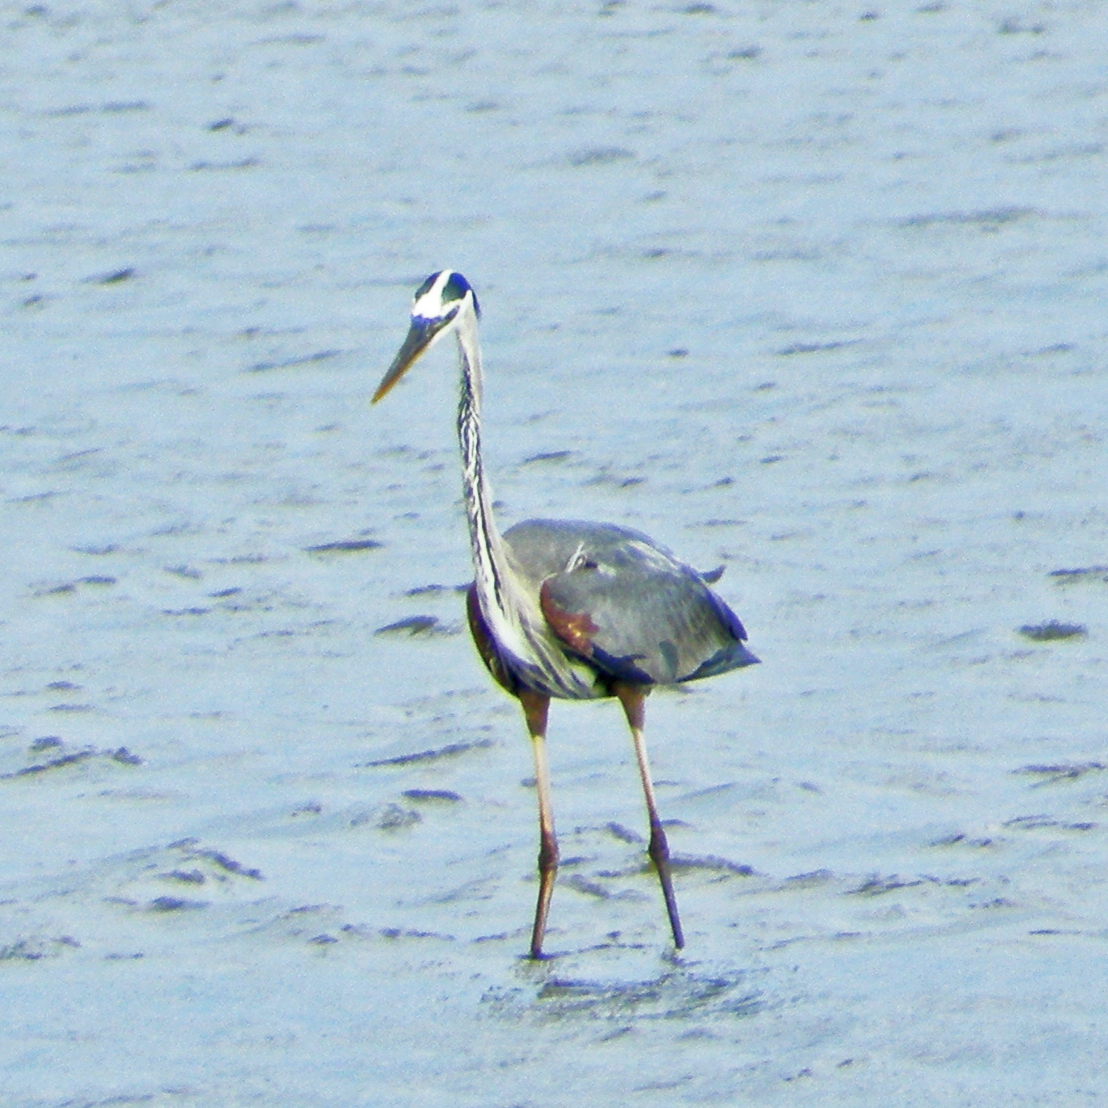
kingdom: Animalia
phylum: Chordata
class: Aves
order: Pelecaniformes
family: Ardeidae
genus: Ardea
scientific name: Ardea herodias
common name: Great blue heron
